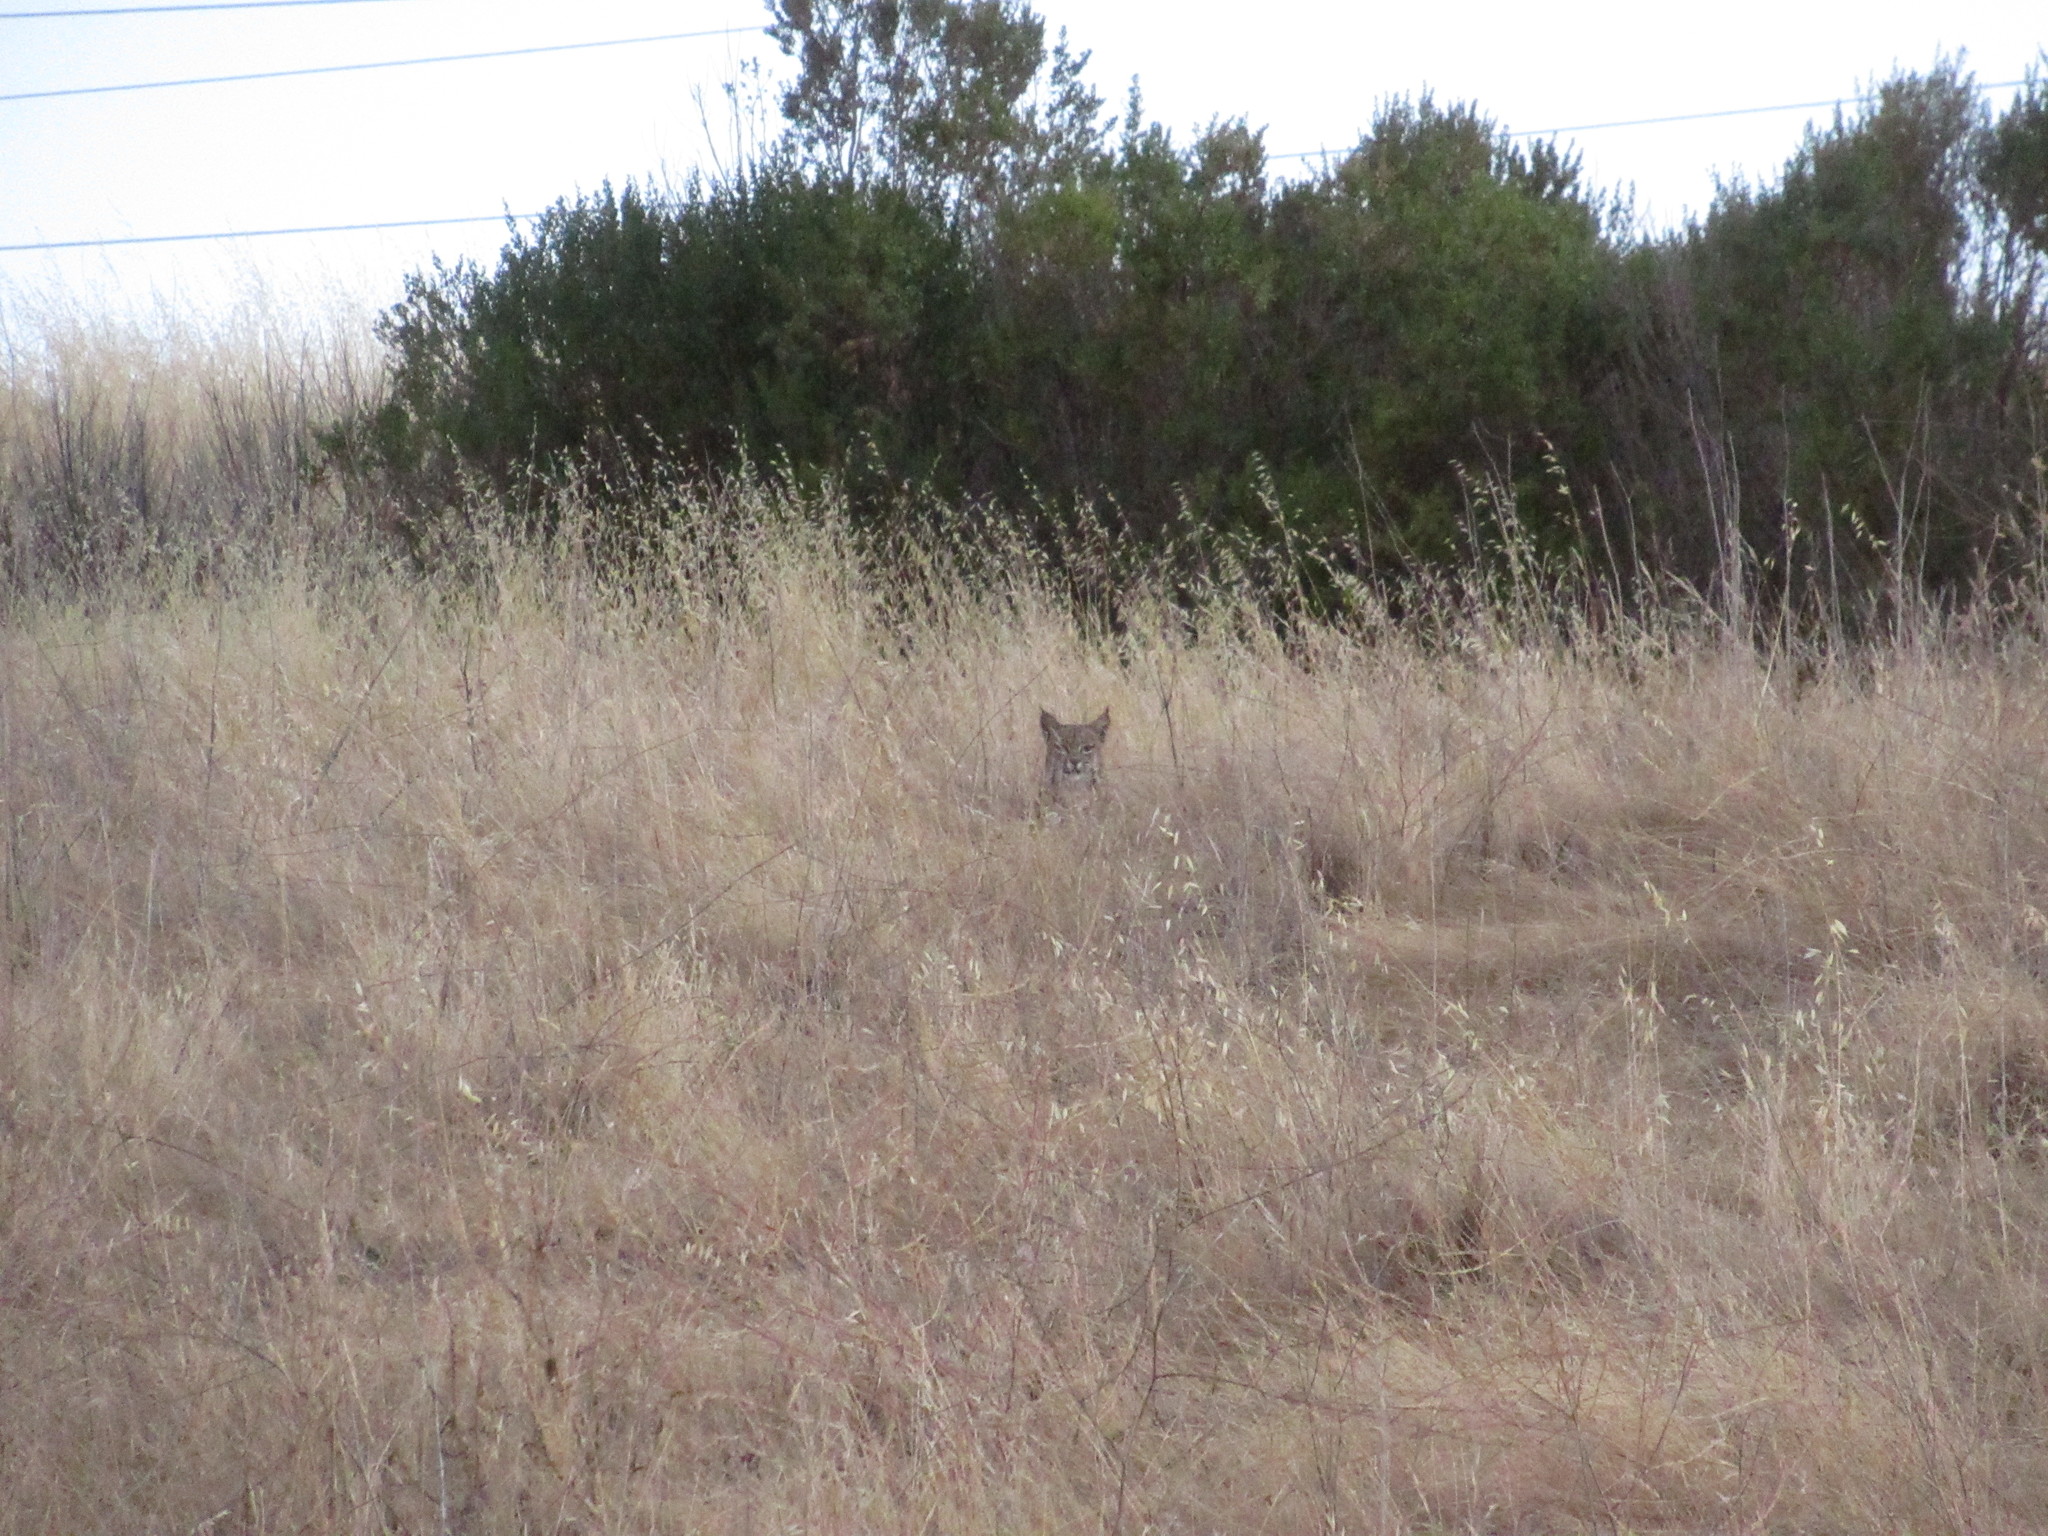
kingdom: Animalia
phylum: Chordata
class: Mammalia
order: Carnivora
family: Felidae
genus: Lynx
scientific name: Lynx rufus
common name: Bobcat
